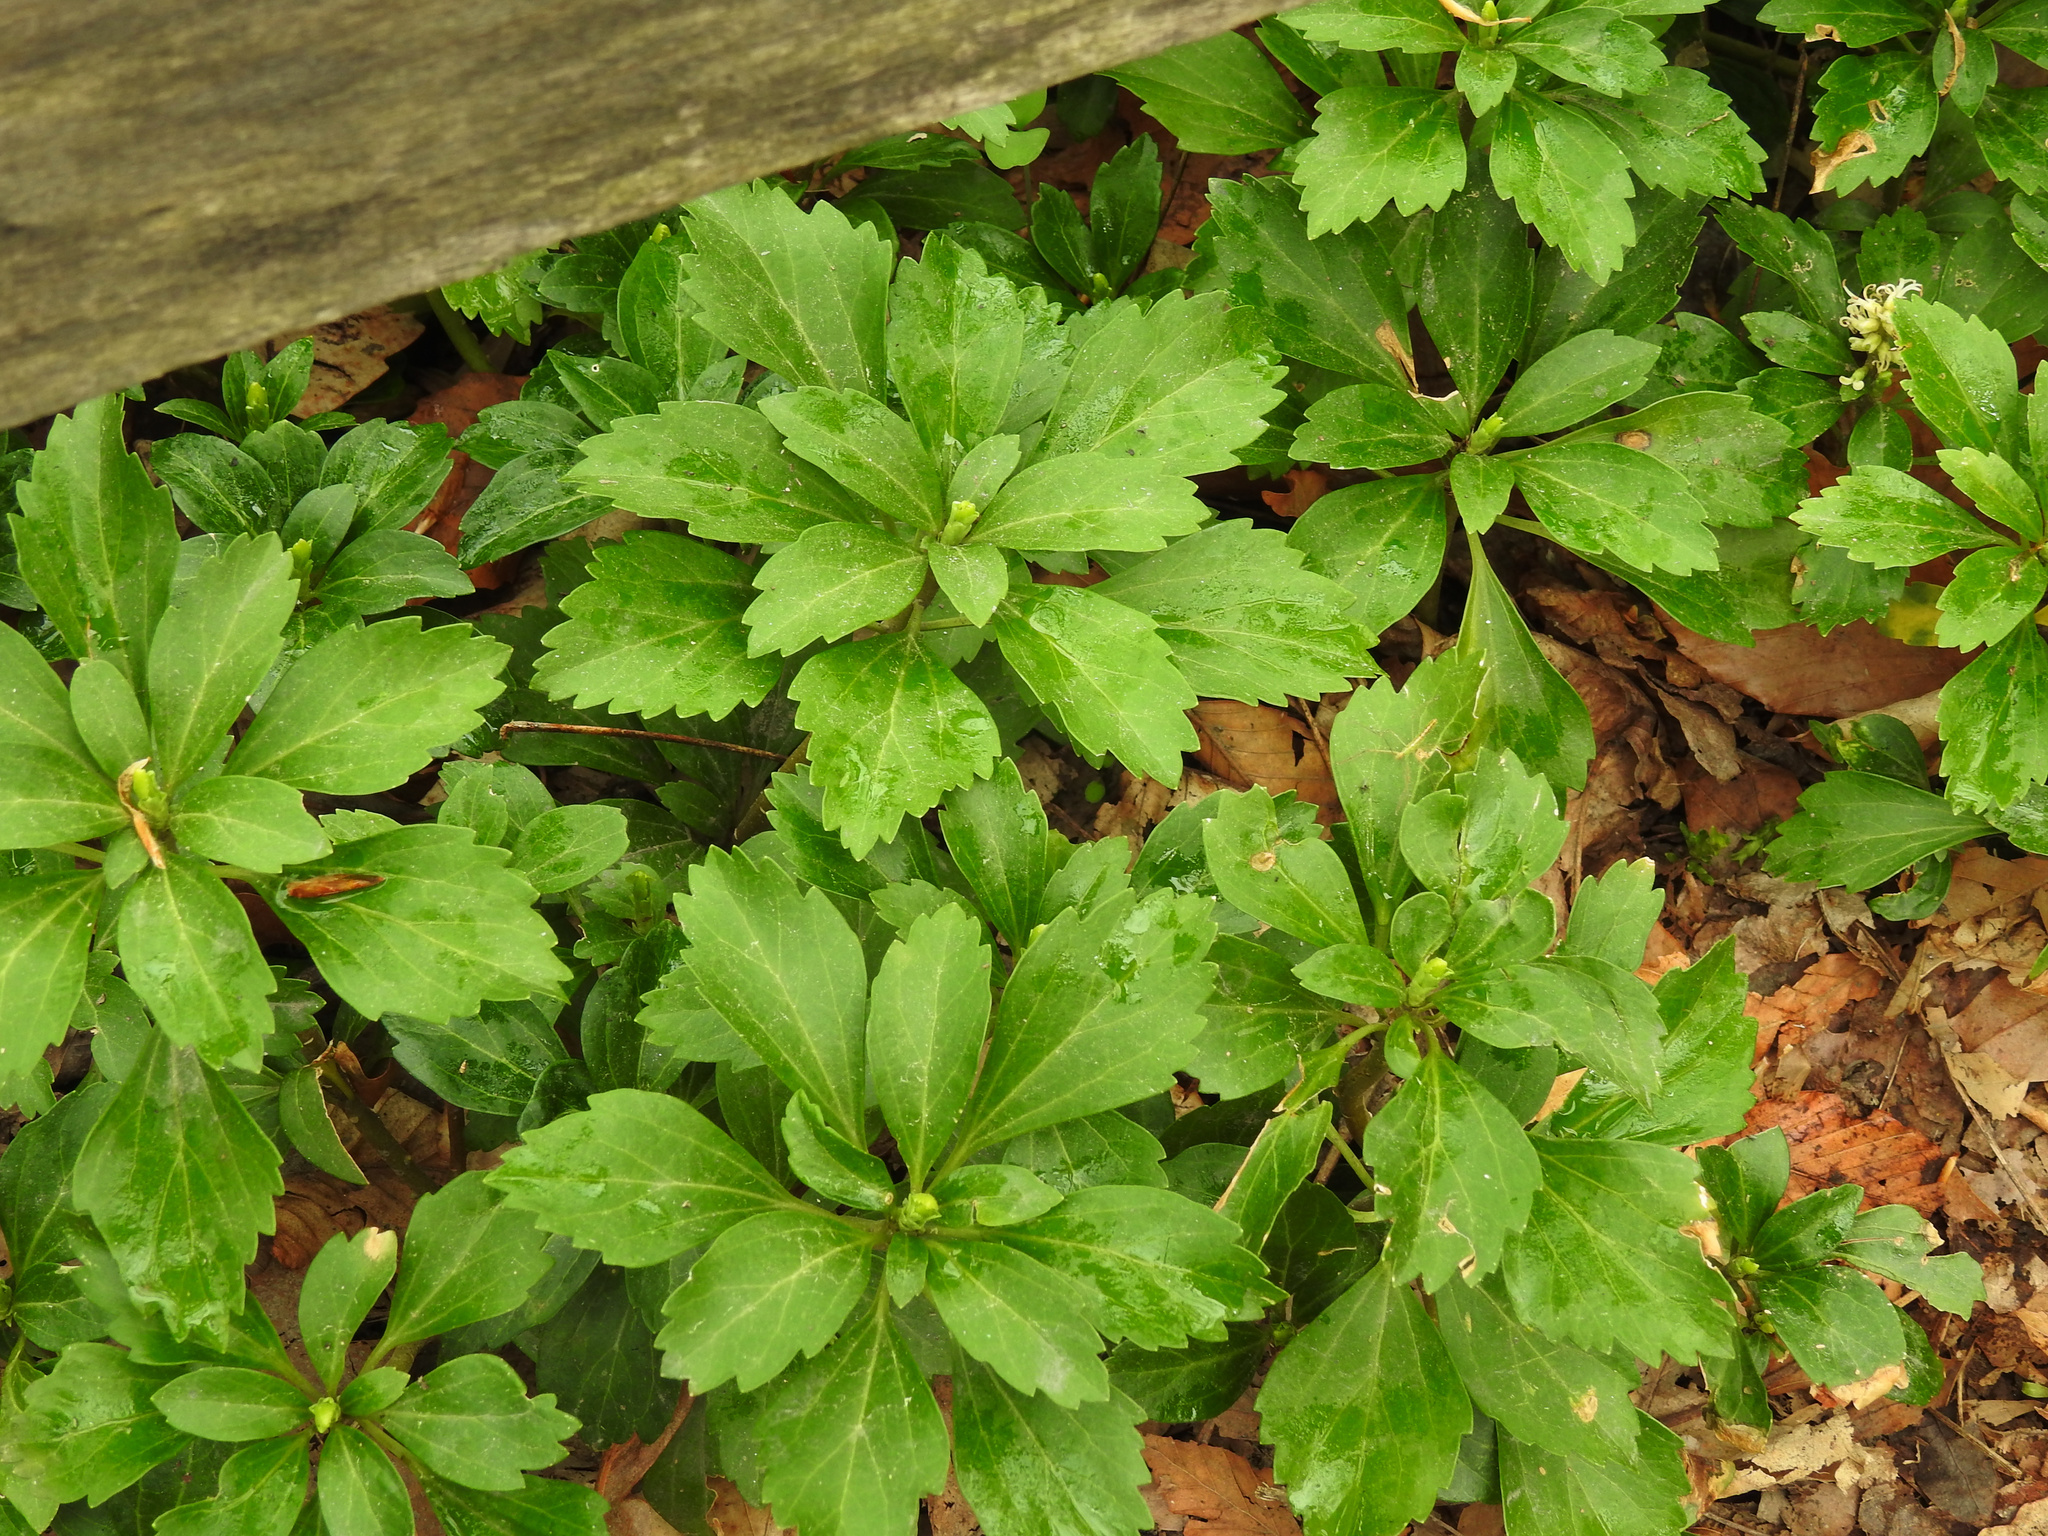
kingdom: Plantae
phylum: Tracheophyta
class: Magnoliopsida
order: Buxales
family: Buxaceae
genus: Pachysandra
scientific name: Pachysandra terminalis
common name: Japanese pachysandra
